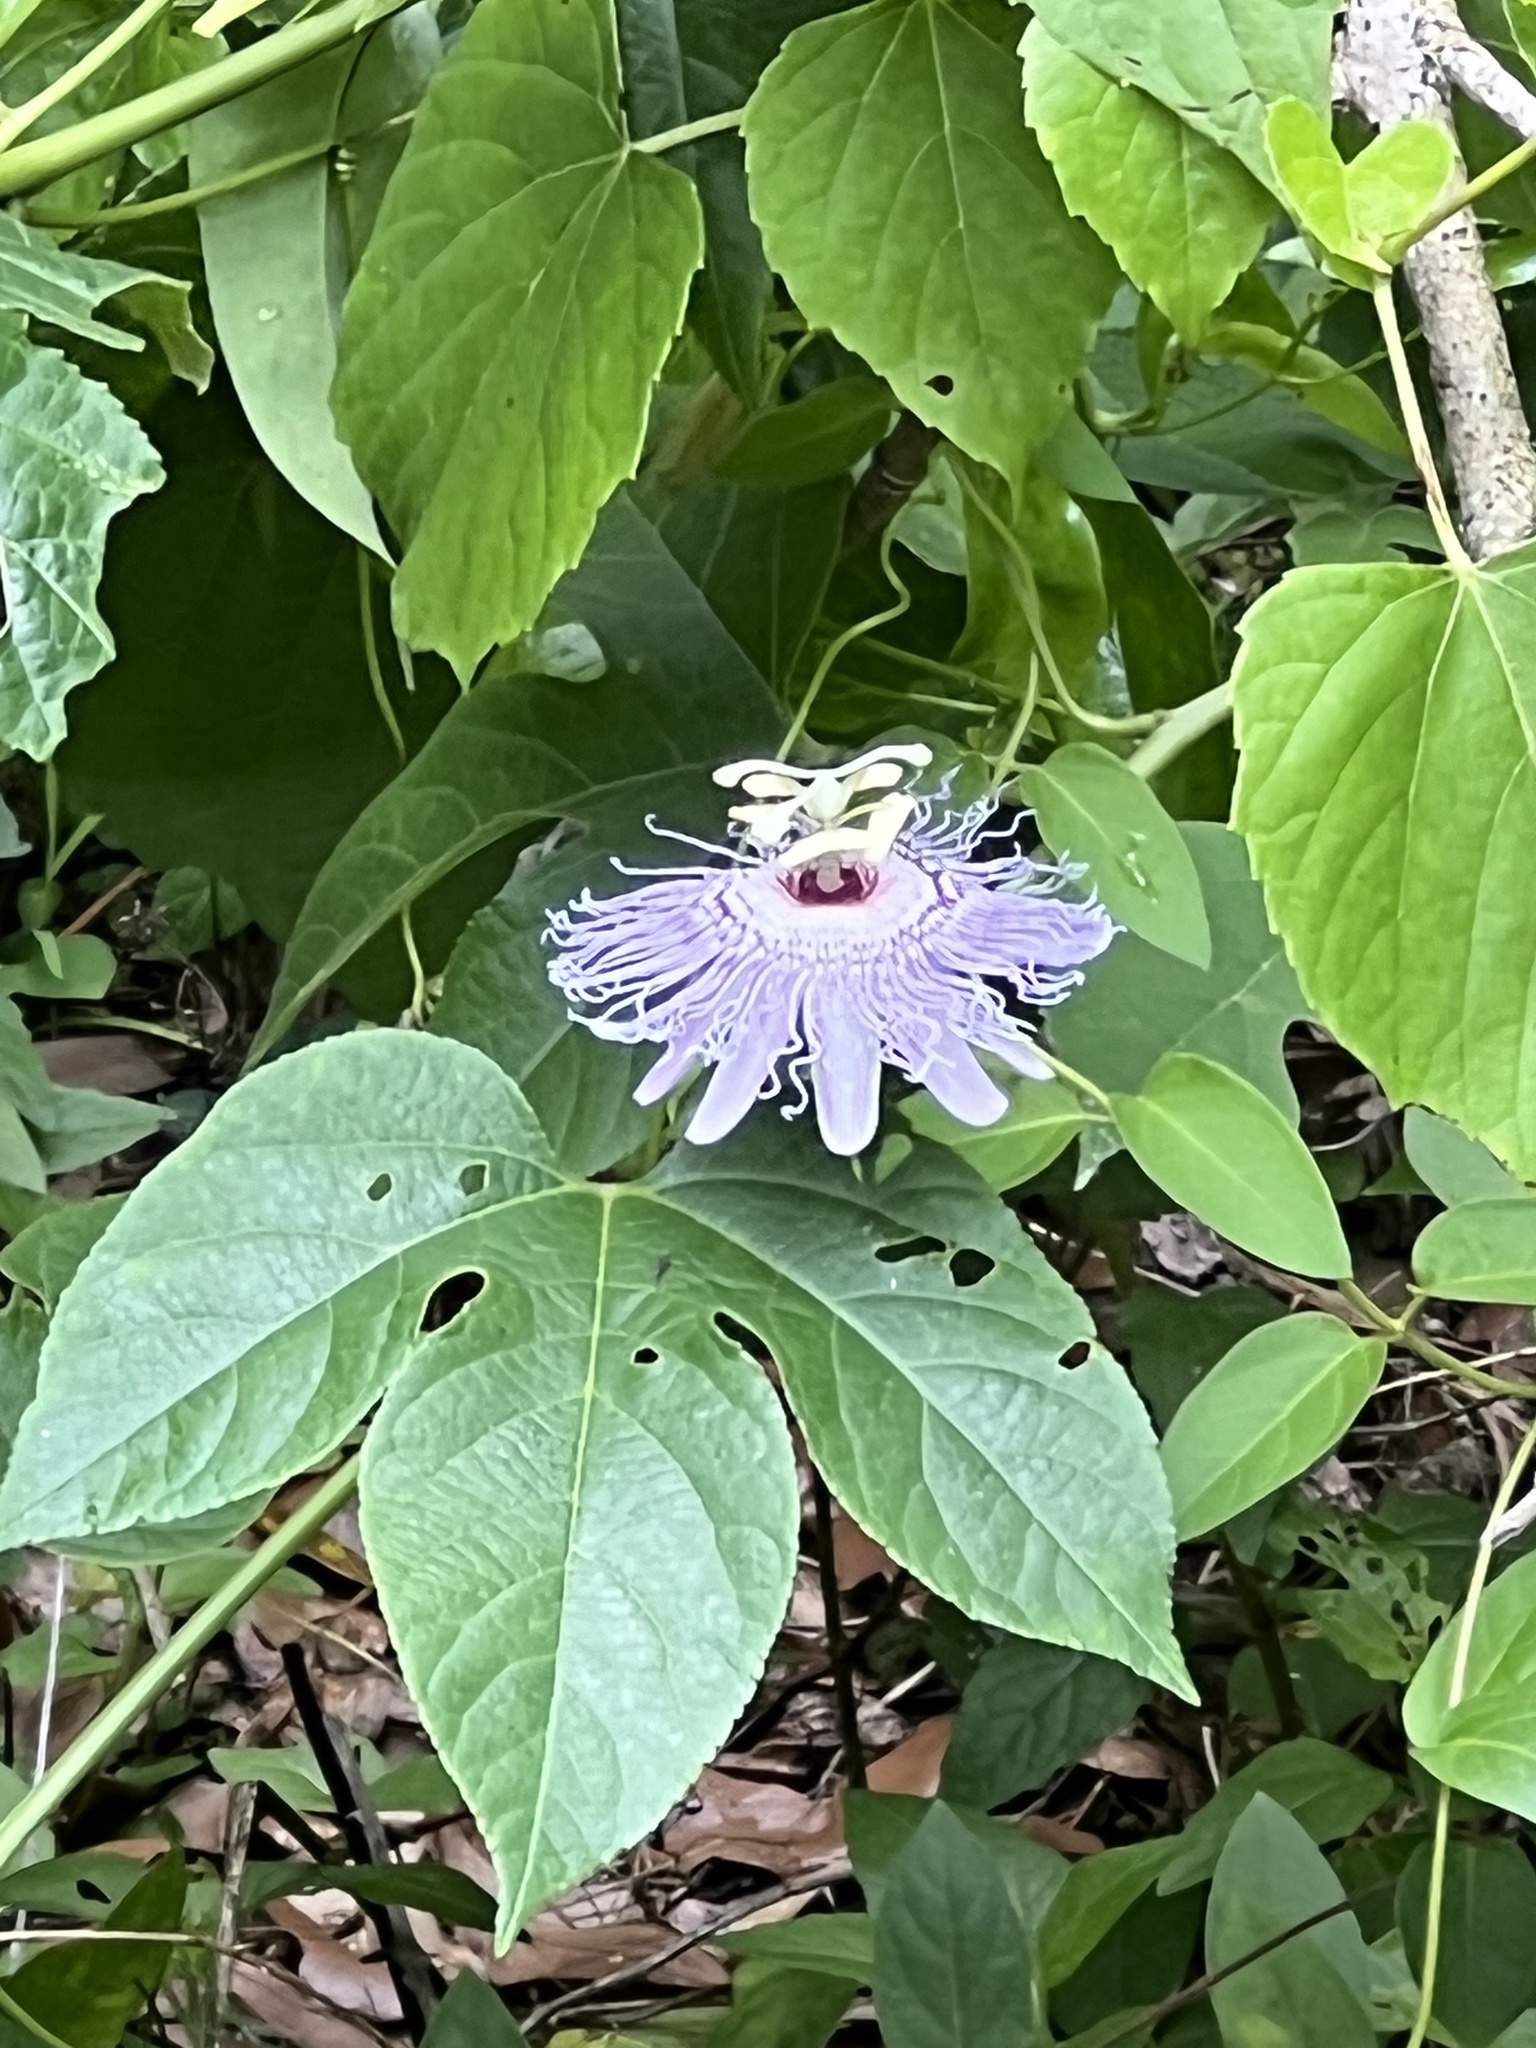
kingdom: Plantae
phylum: Tracheophyta
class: Magnoliopsida
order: Malpighiales
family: Passifloraceae
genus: Passiflora
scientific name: Passiflora incarnata
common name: Apricot-vine
